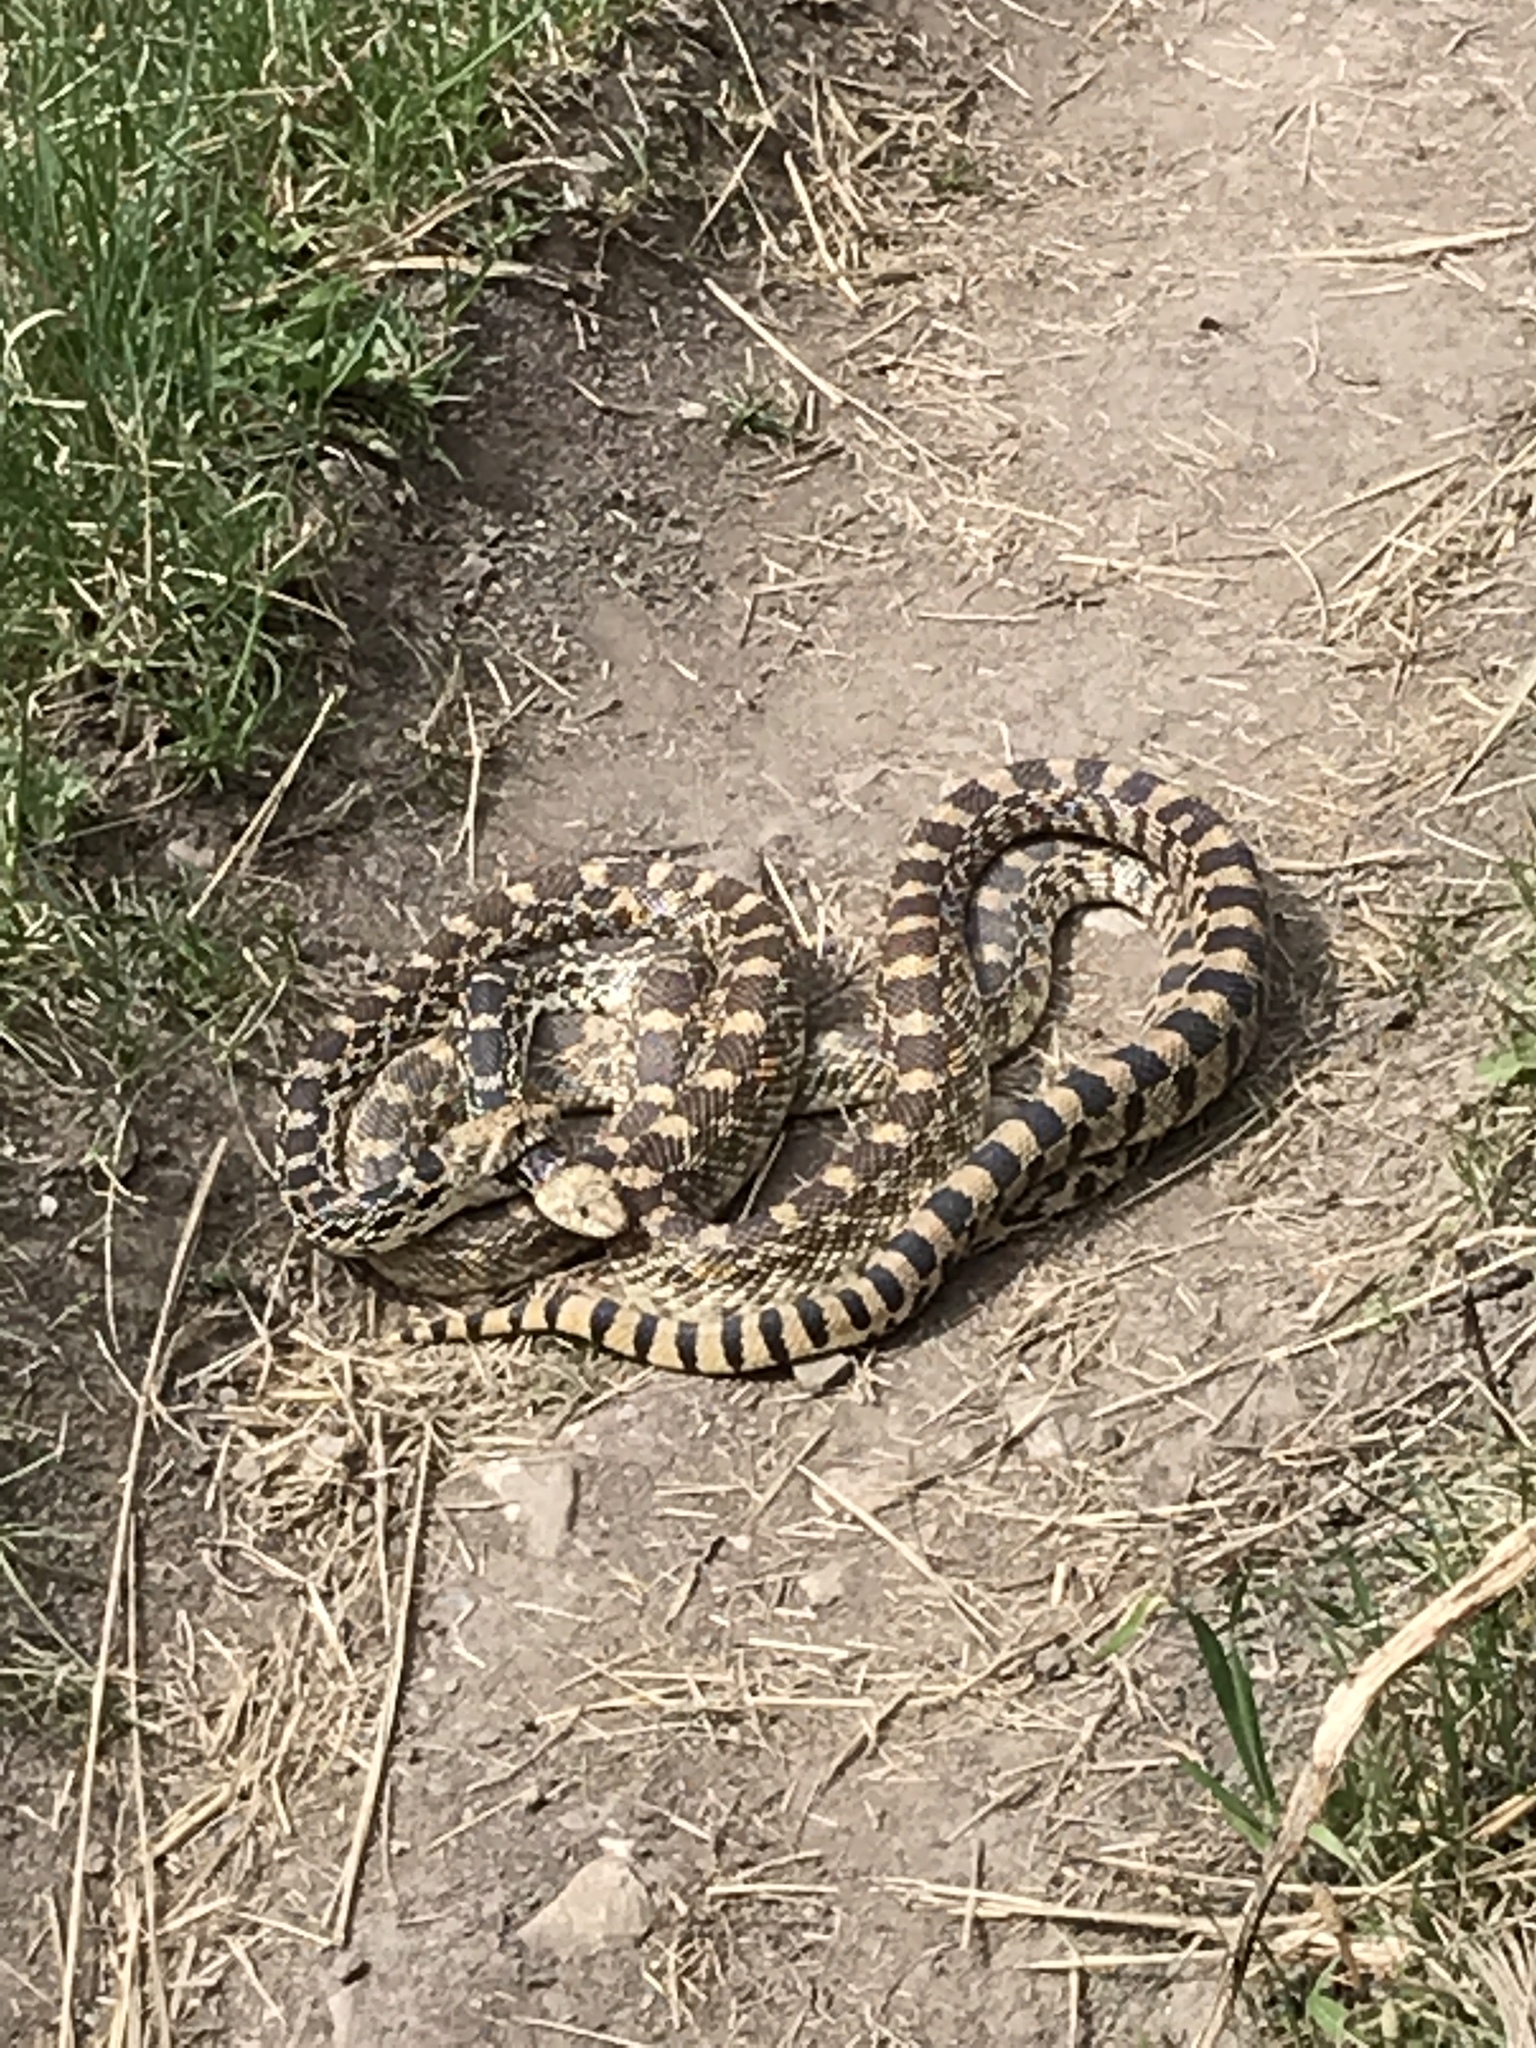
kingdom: Animalia
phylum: Chordata
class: Squamata
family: Colubridae
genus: Pituophis
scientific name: Pituophis catenifer
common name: Gopher snake
